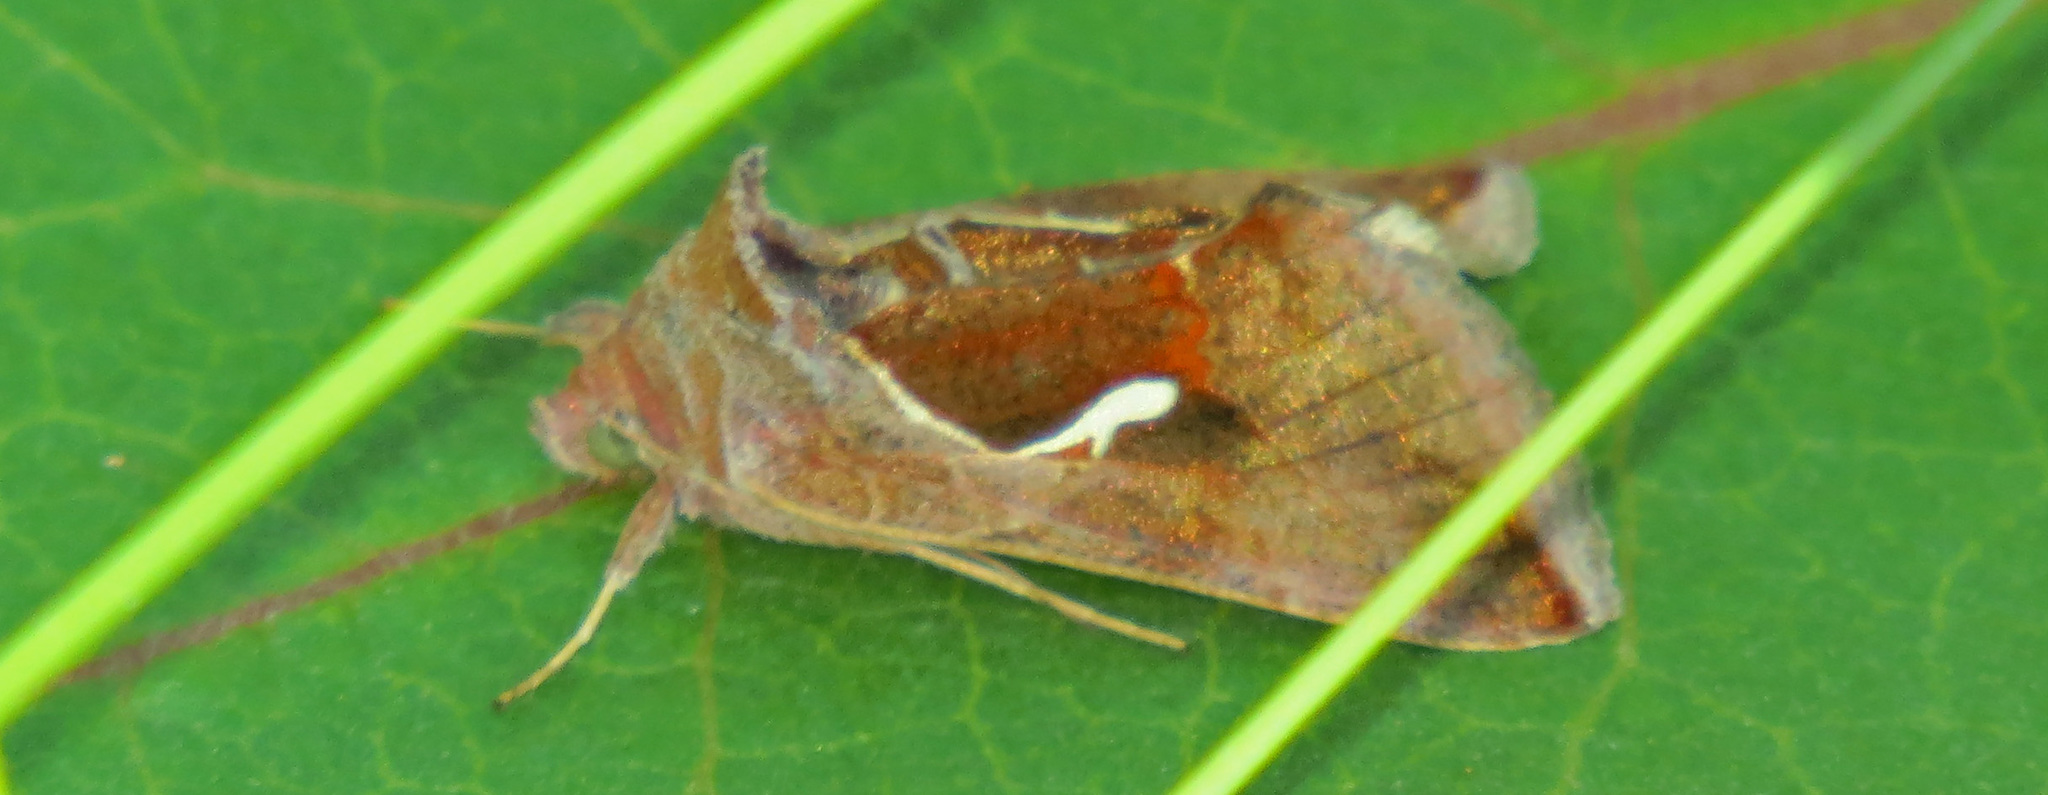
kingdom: Animalia
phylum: Arthropoda
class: Insecta
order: Lepidoptera
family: Noctuidae
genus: Anagrapha
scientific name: Anagrapha falcifera
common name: Celery looper
